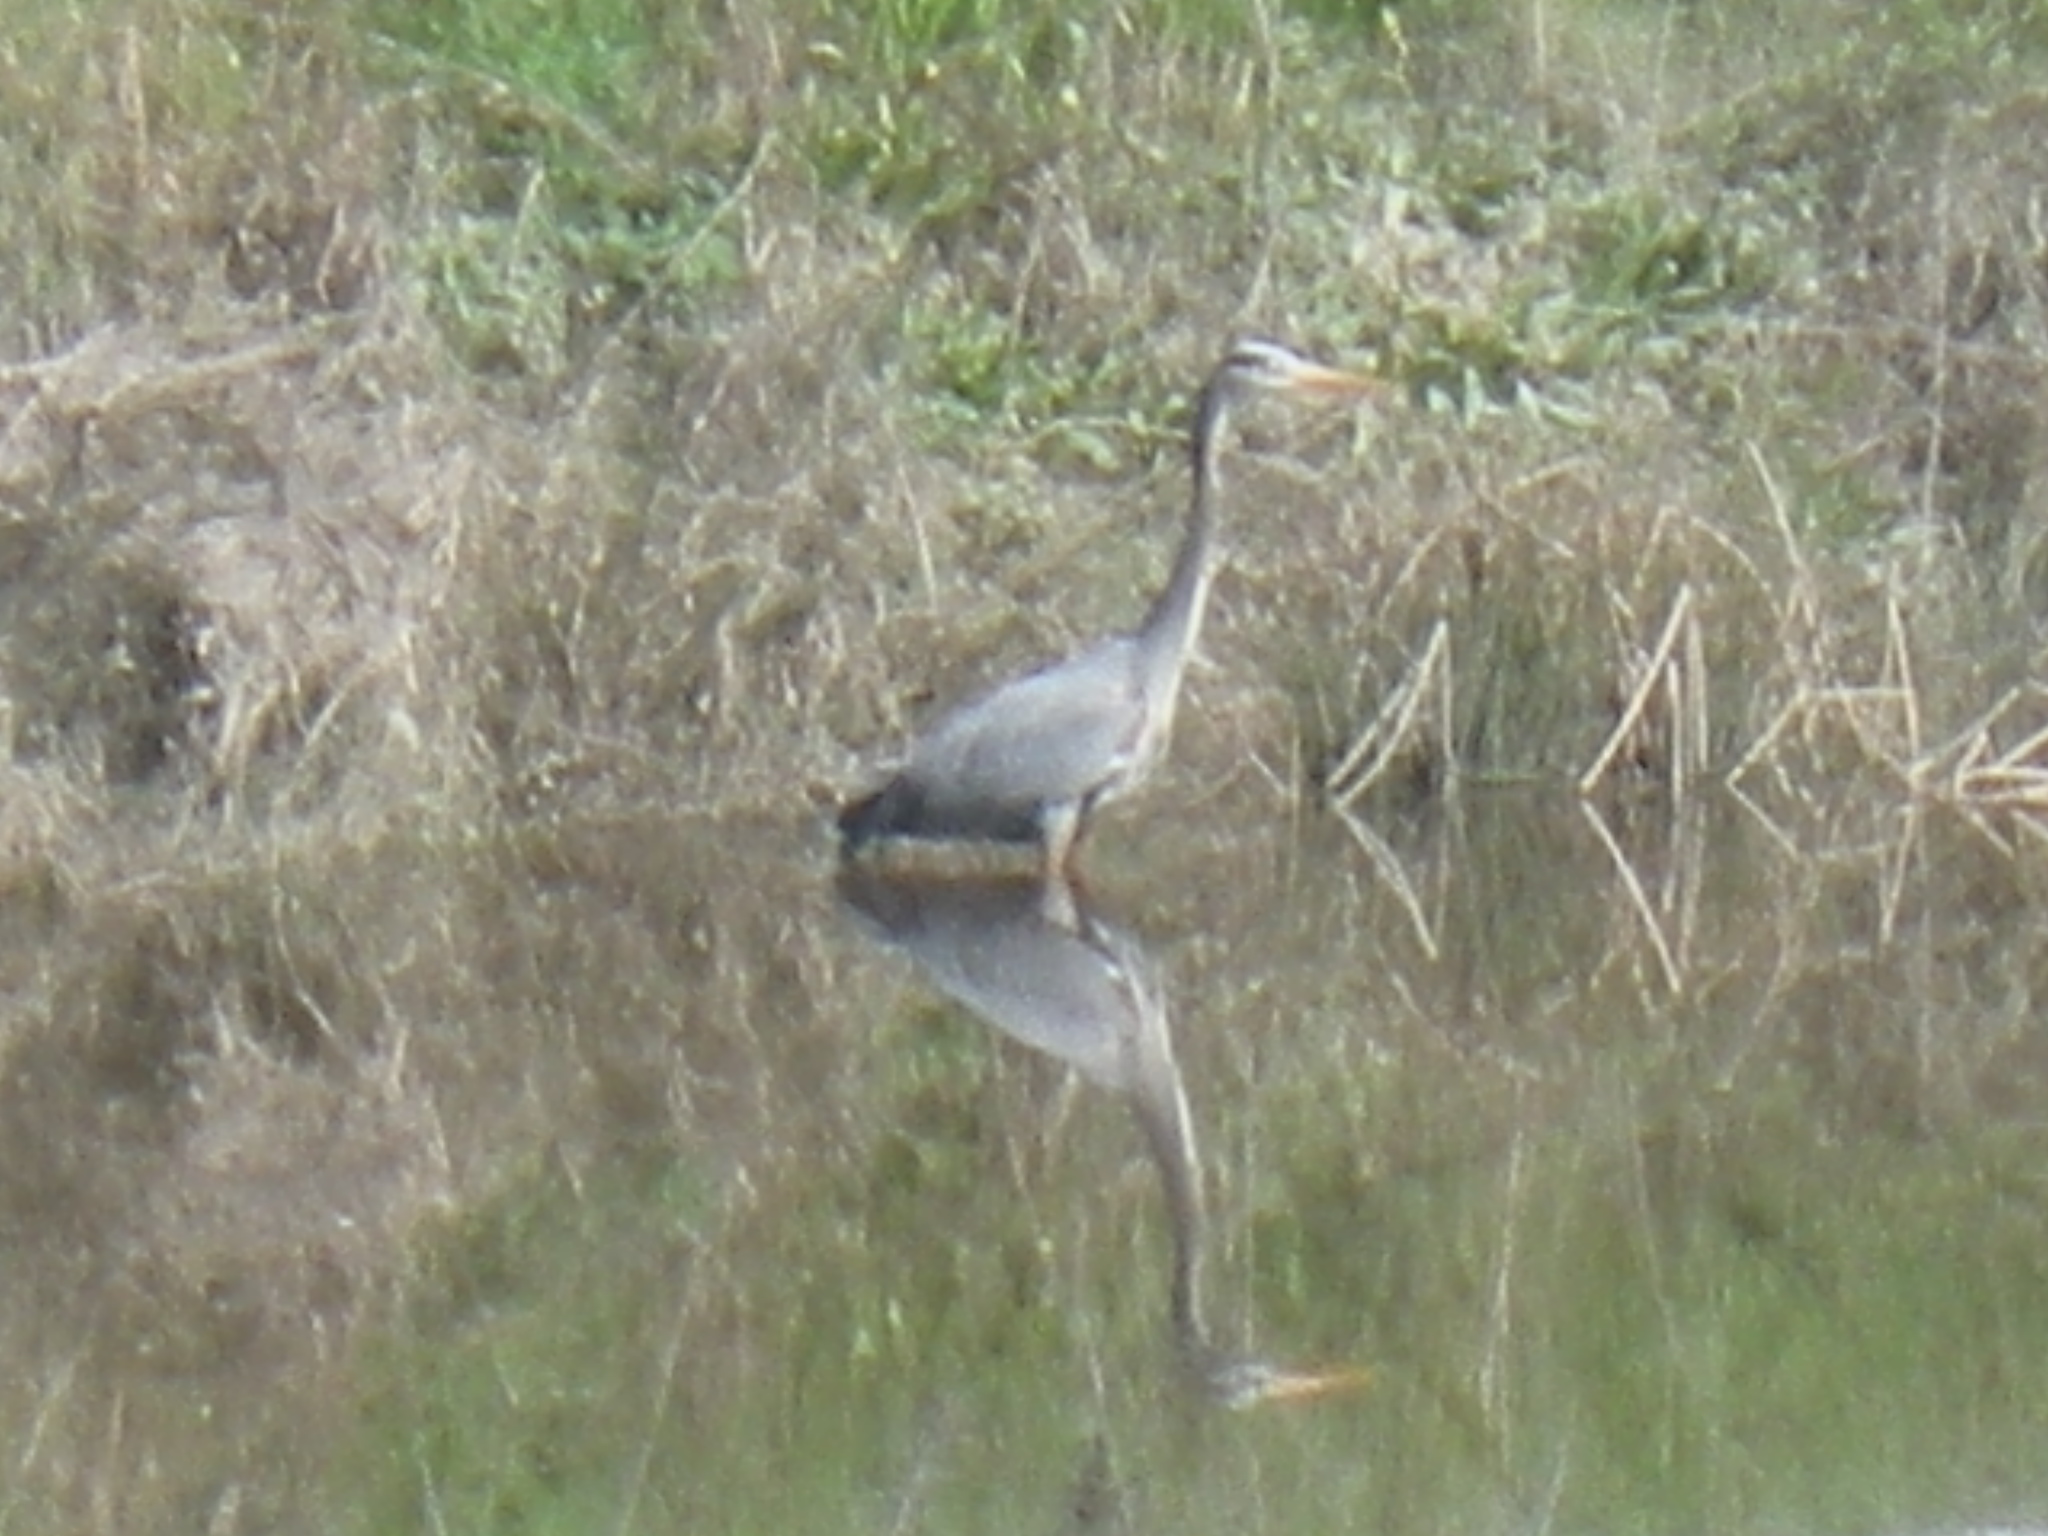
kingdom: Animalia
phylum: Chordata
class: Aves
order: Pelecaniformes
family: Ardeidae
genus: Ardea
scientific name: Ardea herodias
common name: Great blue heron
